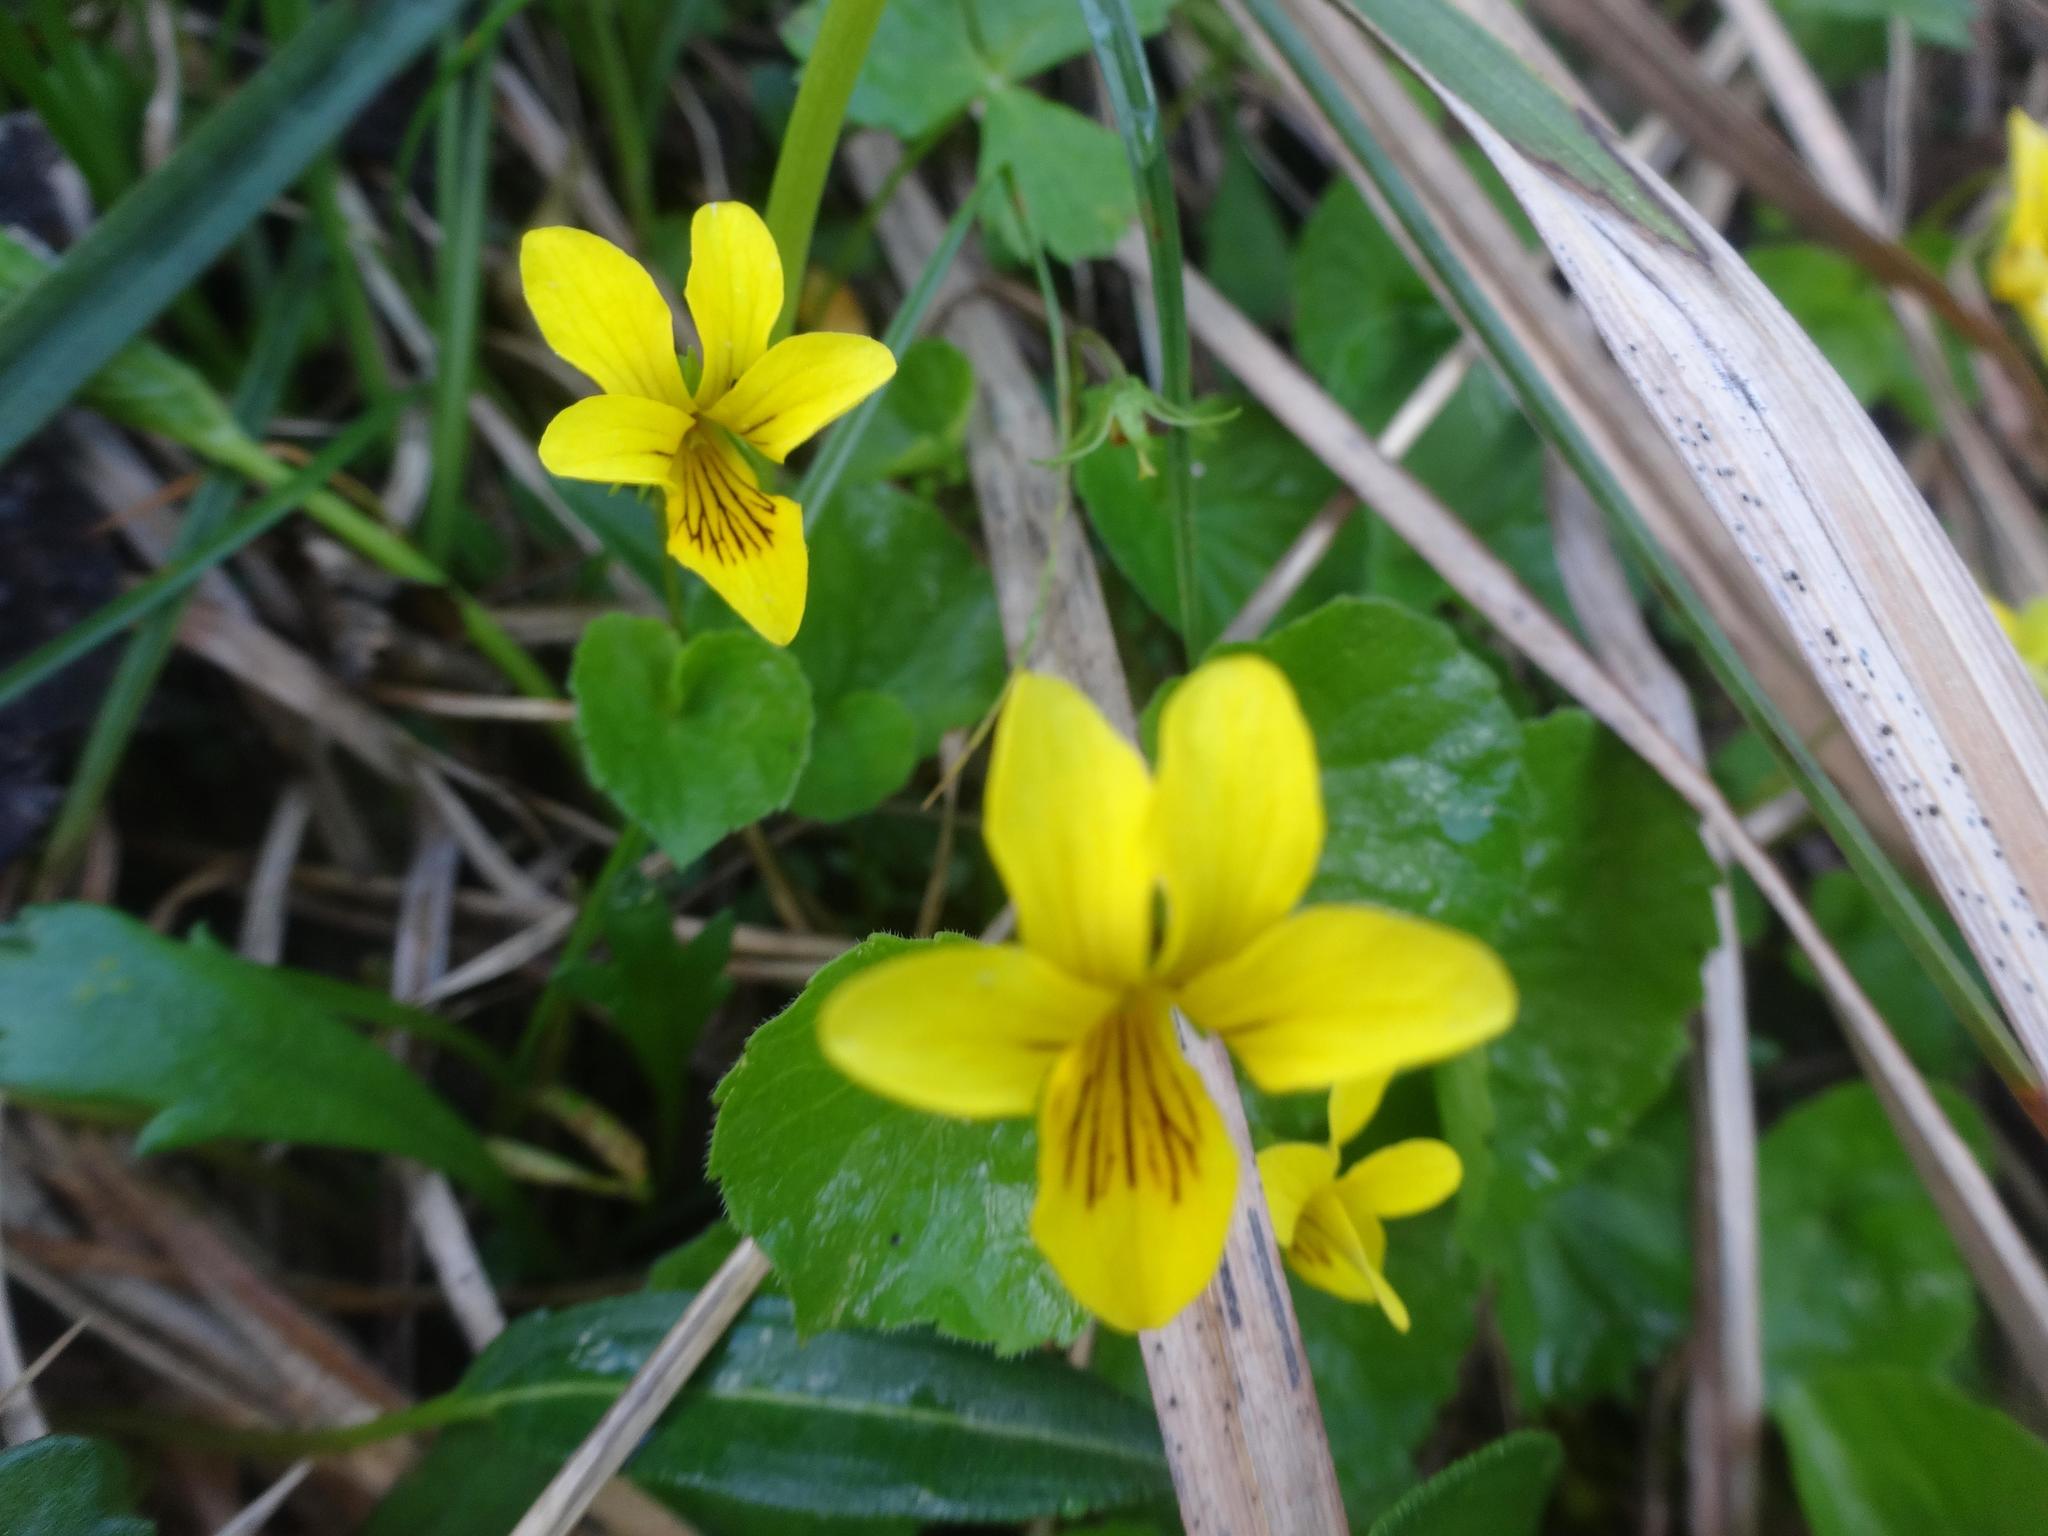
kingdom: Plantae
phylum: Tracheophyta
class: Magnoliopsida
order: Malpighiales
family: Violaceae
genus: Viola
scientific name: Viola biflora
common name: Alpine yellow violet
